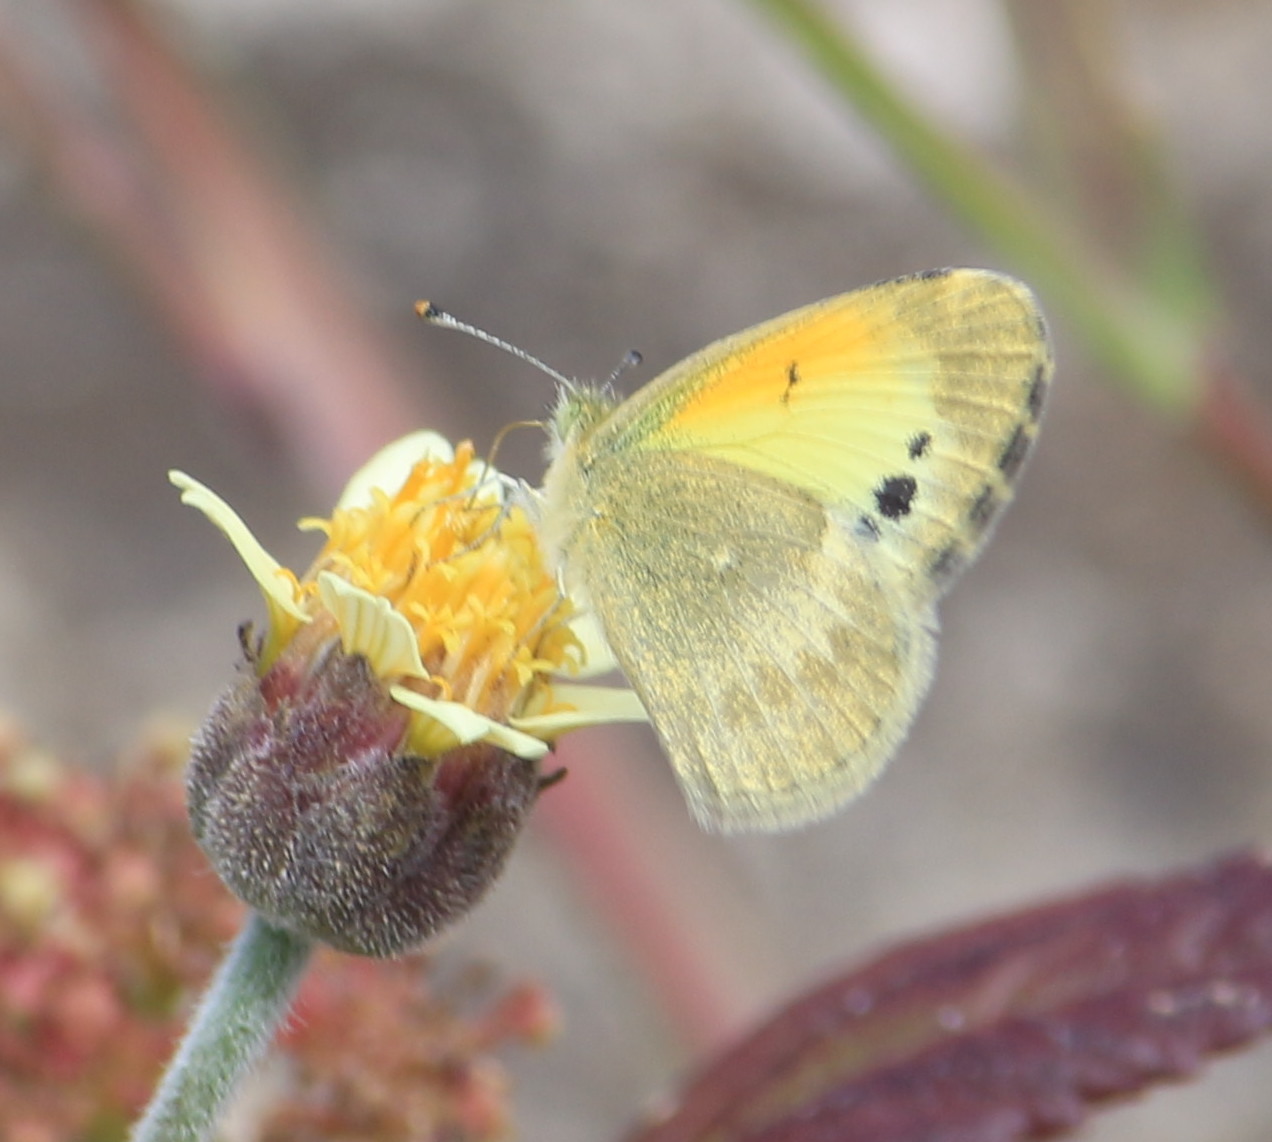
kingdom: Animalia
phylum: Arthropoda
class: Insecta
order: Lepidoptera
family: Pieridae
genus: Nathalis
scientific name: Nathalis iole
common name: Dainty sulphur
